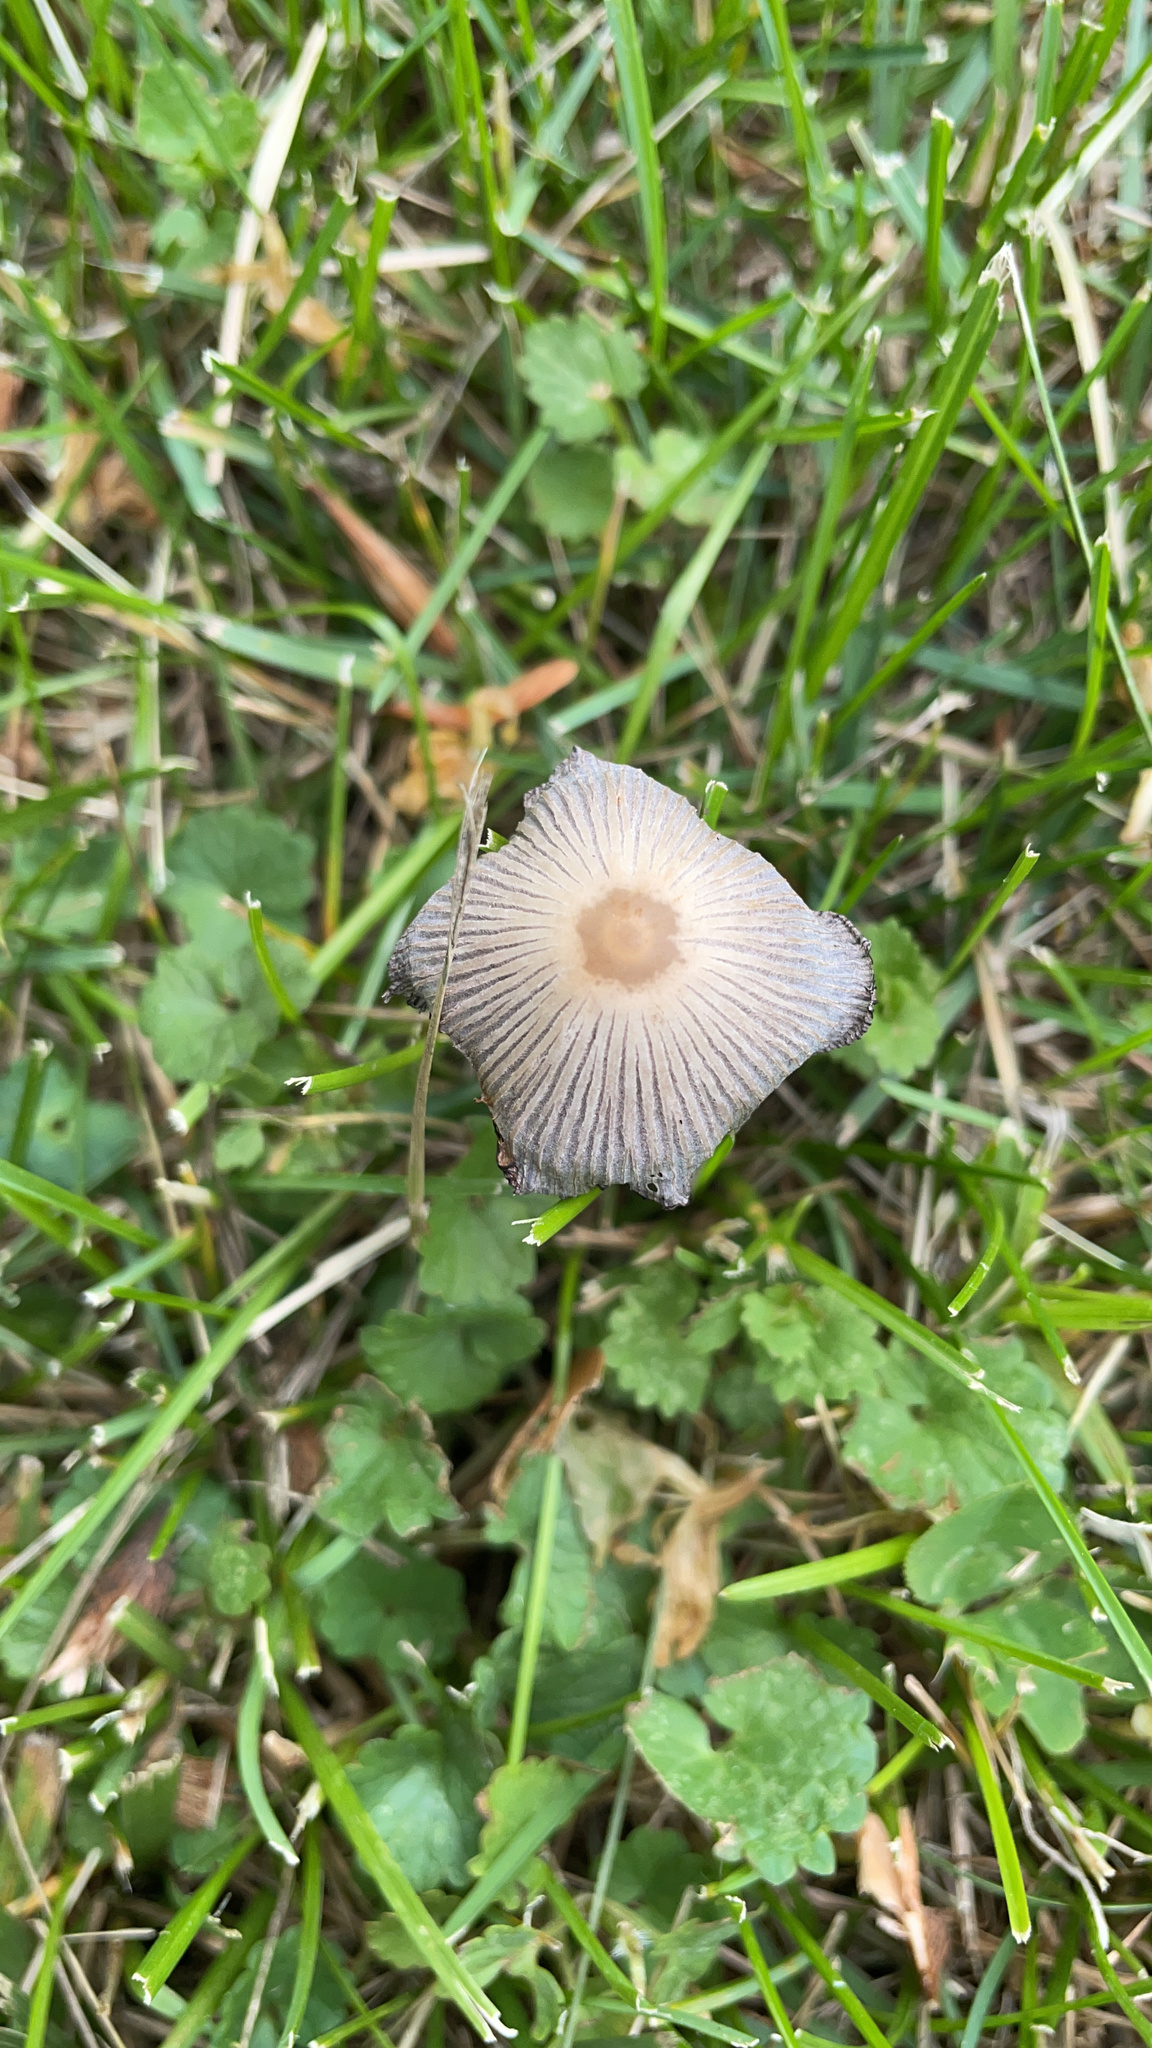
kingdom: Fungi
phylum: Basidiomycota
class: Agaricomycetes
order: Agaricales
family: Psathyrellaceae
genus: Parasola
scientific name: Parasola plicatilis
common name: Pleated inkcap
